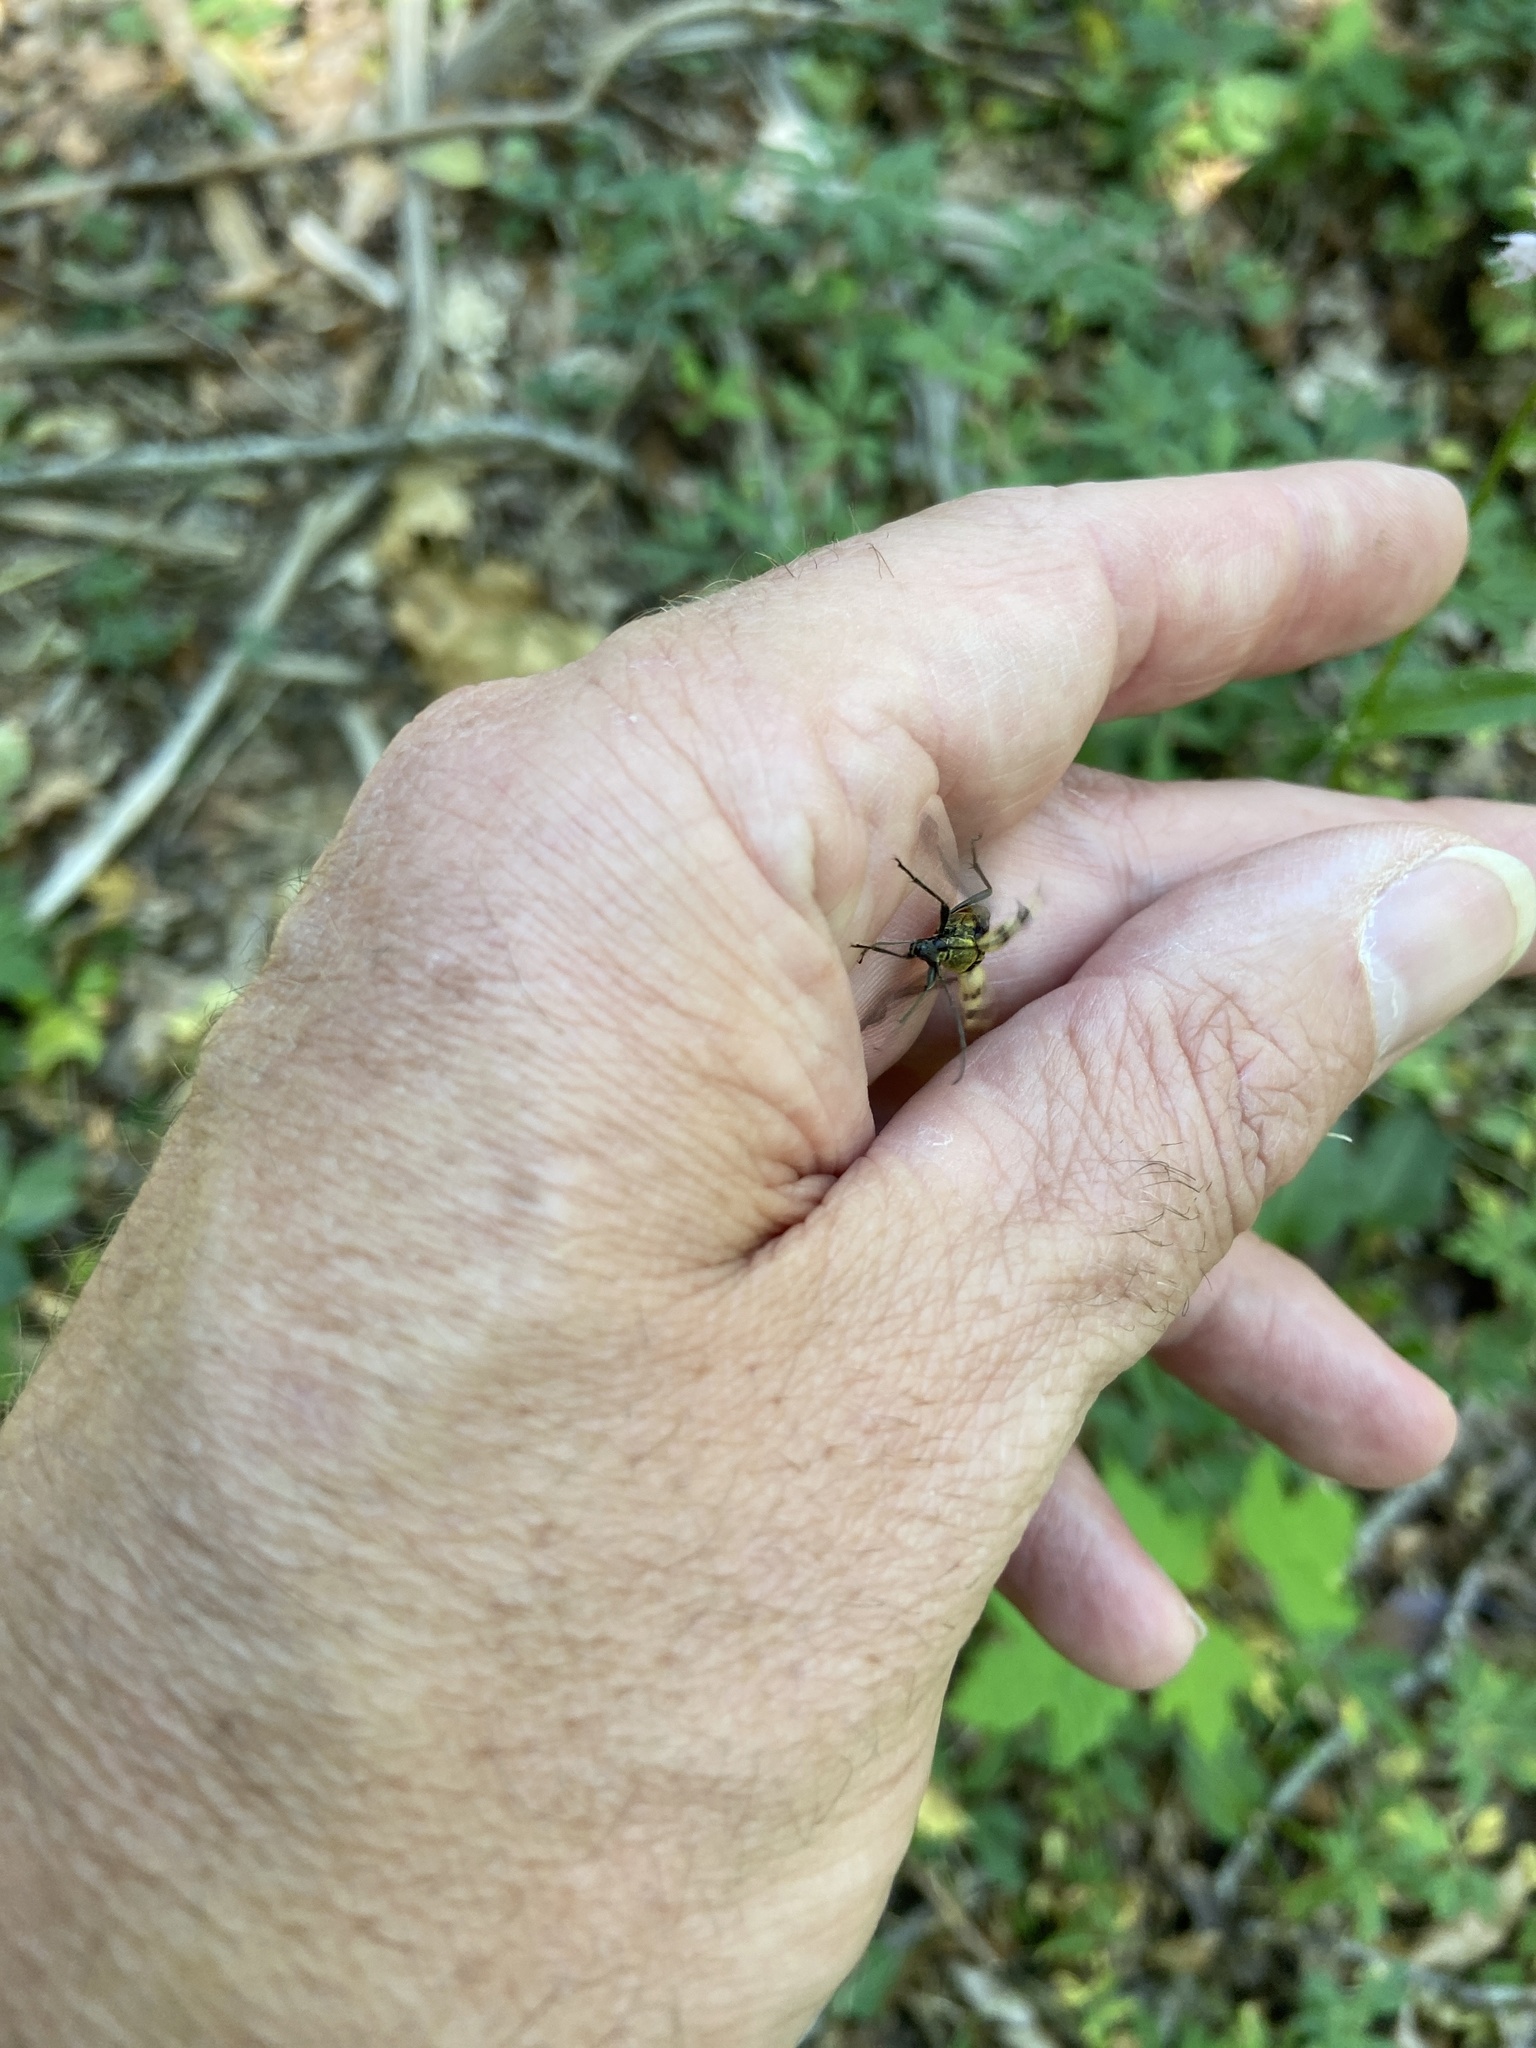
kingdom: Animalia
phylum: Arthropoda
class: Insecta
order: Coleoptera
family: Cerambycidae
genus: Pachytodes
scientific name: Pachytodes cerambyciformis
